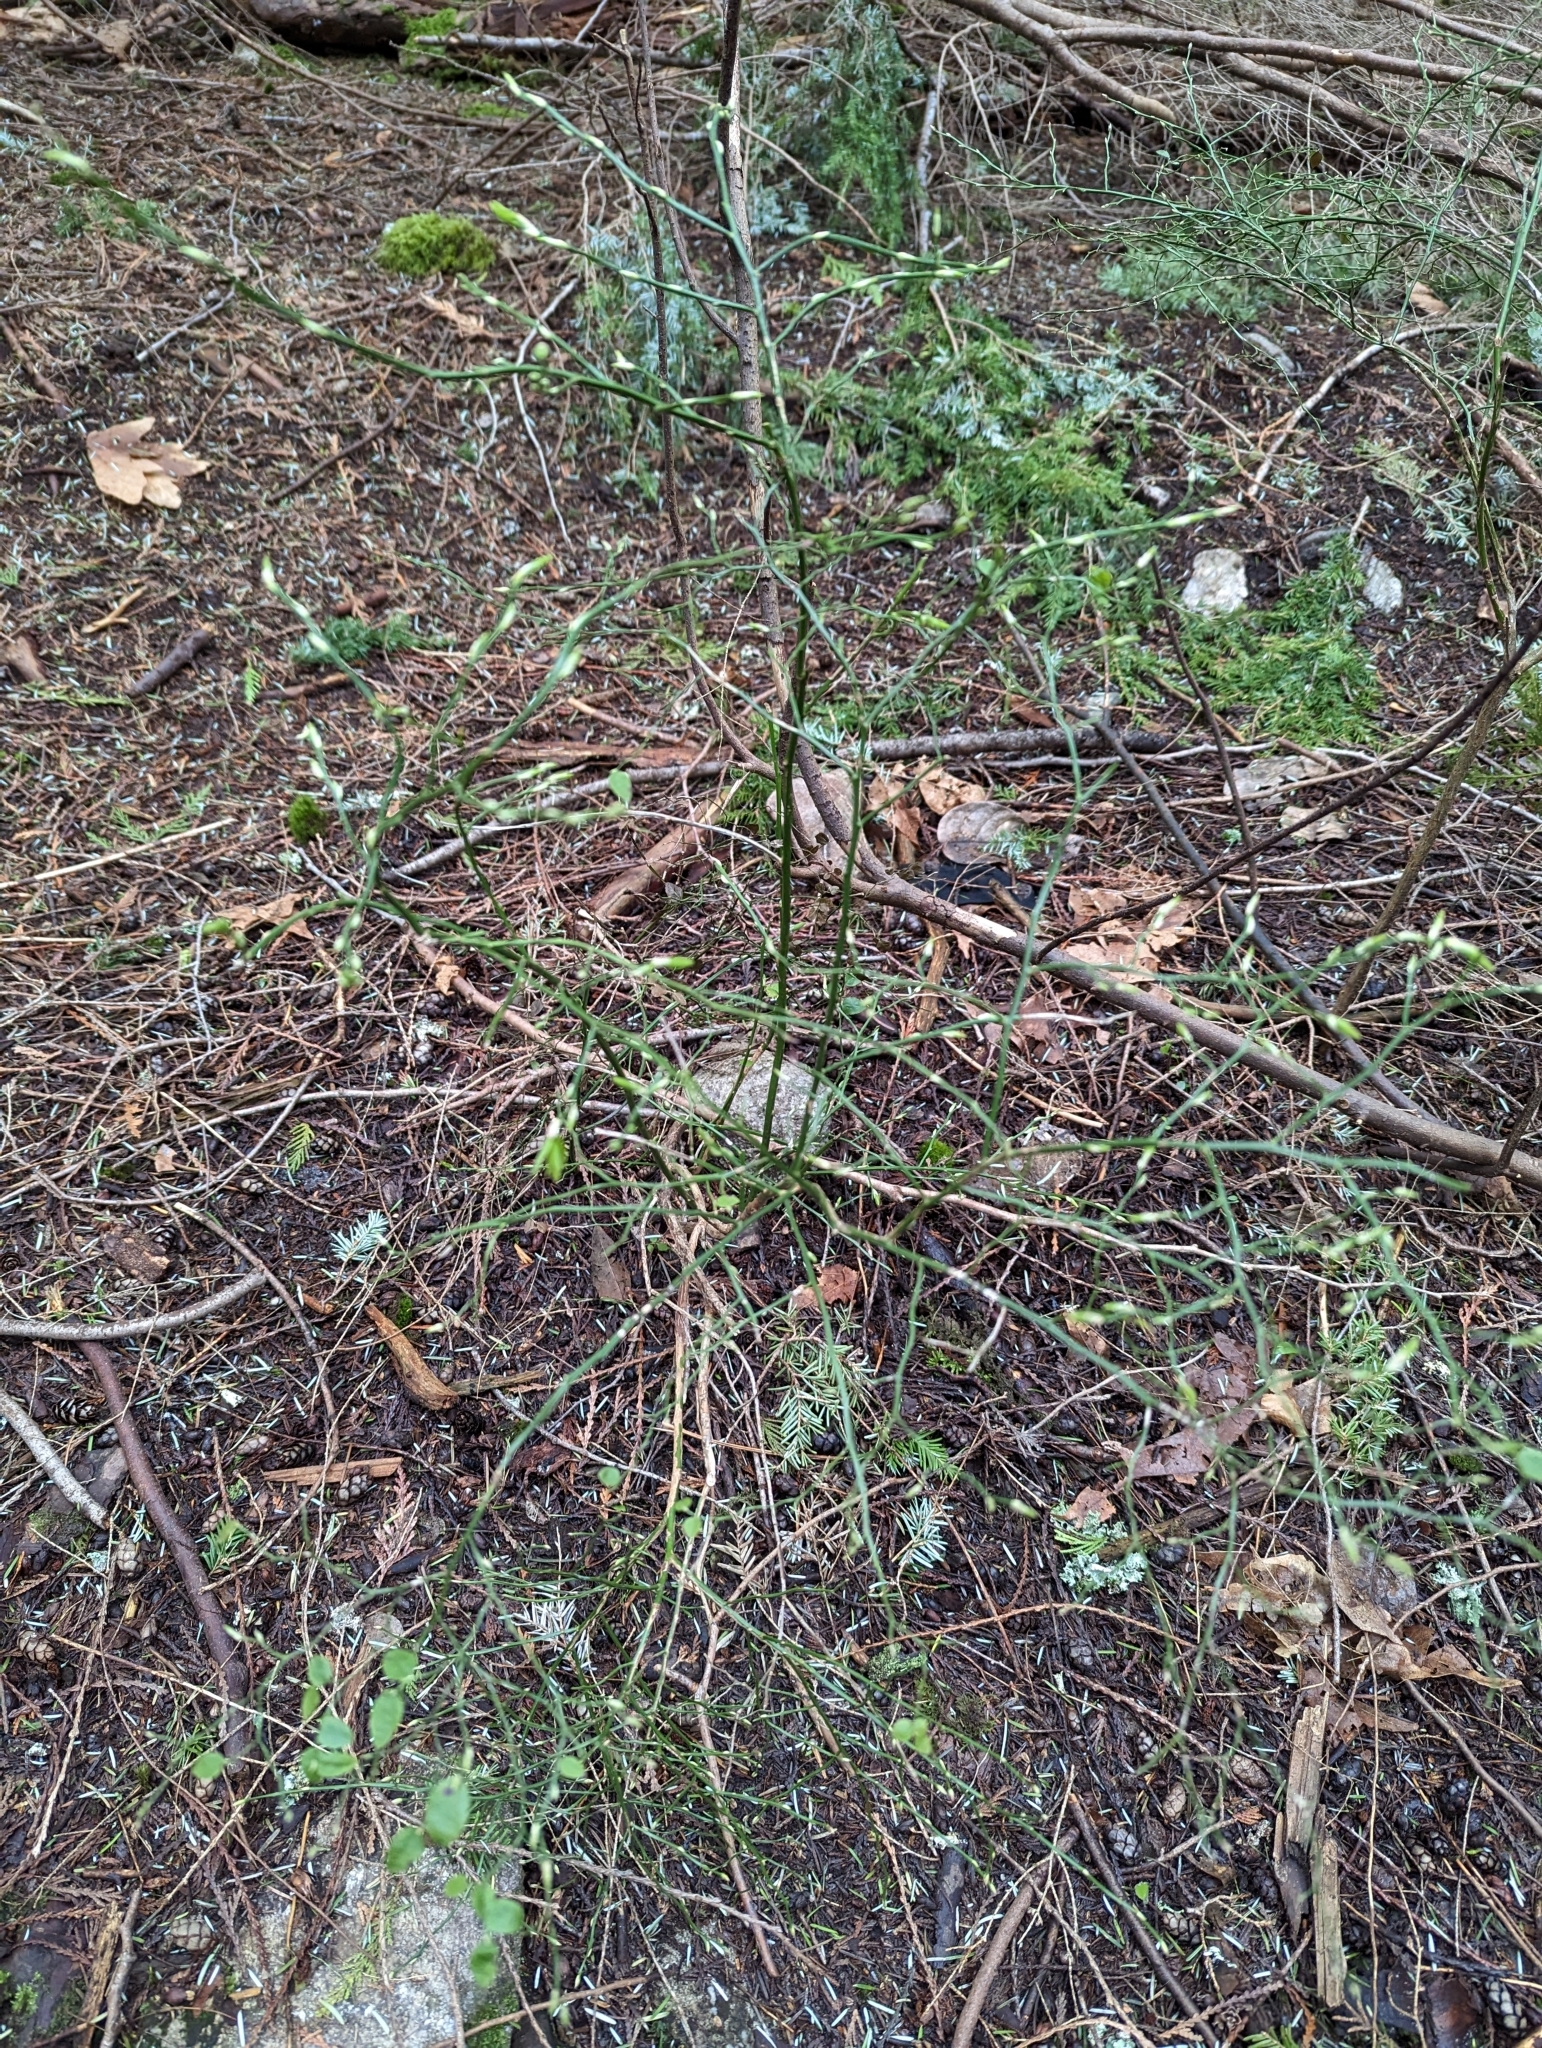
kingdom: Plantae
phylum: Tracheophyta
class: Magnoliopsida
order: Ericales
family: Ericaceae
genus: Vaccinium
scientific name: Vaccinium parvifolium
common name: Red-huckleberry
